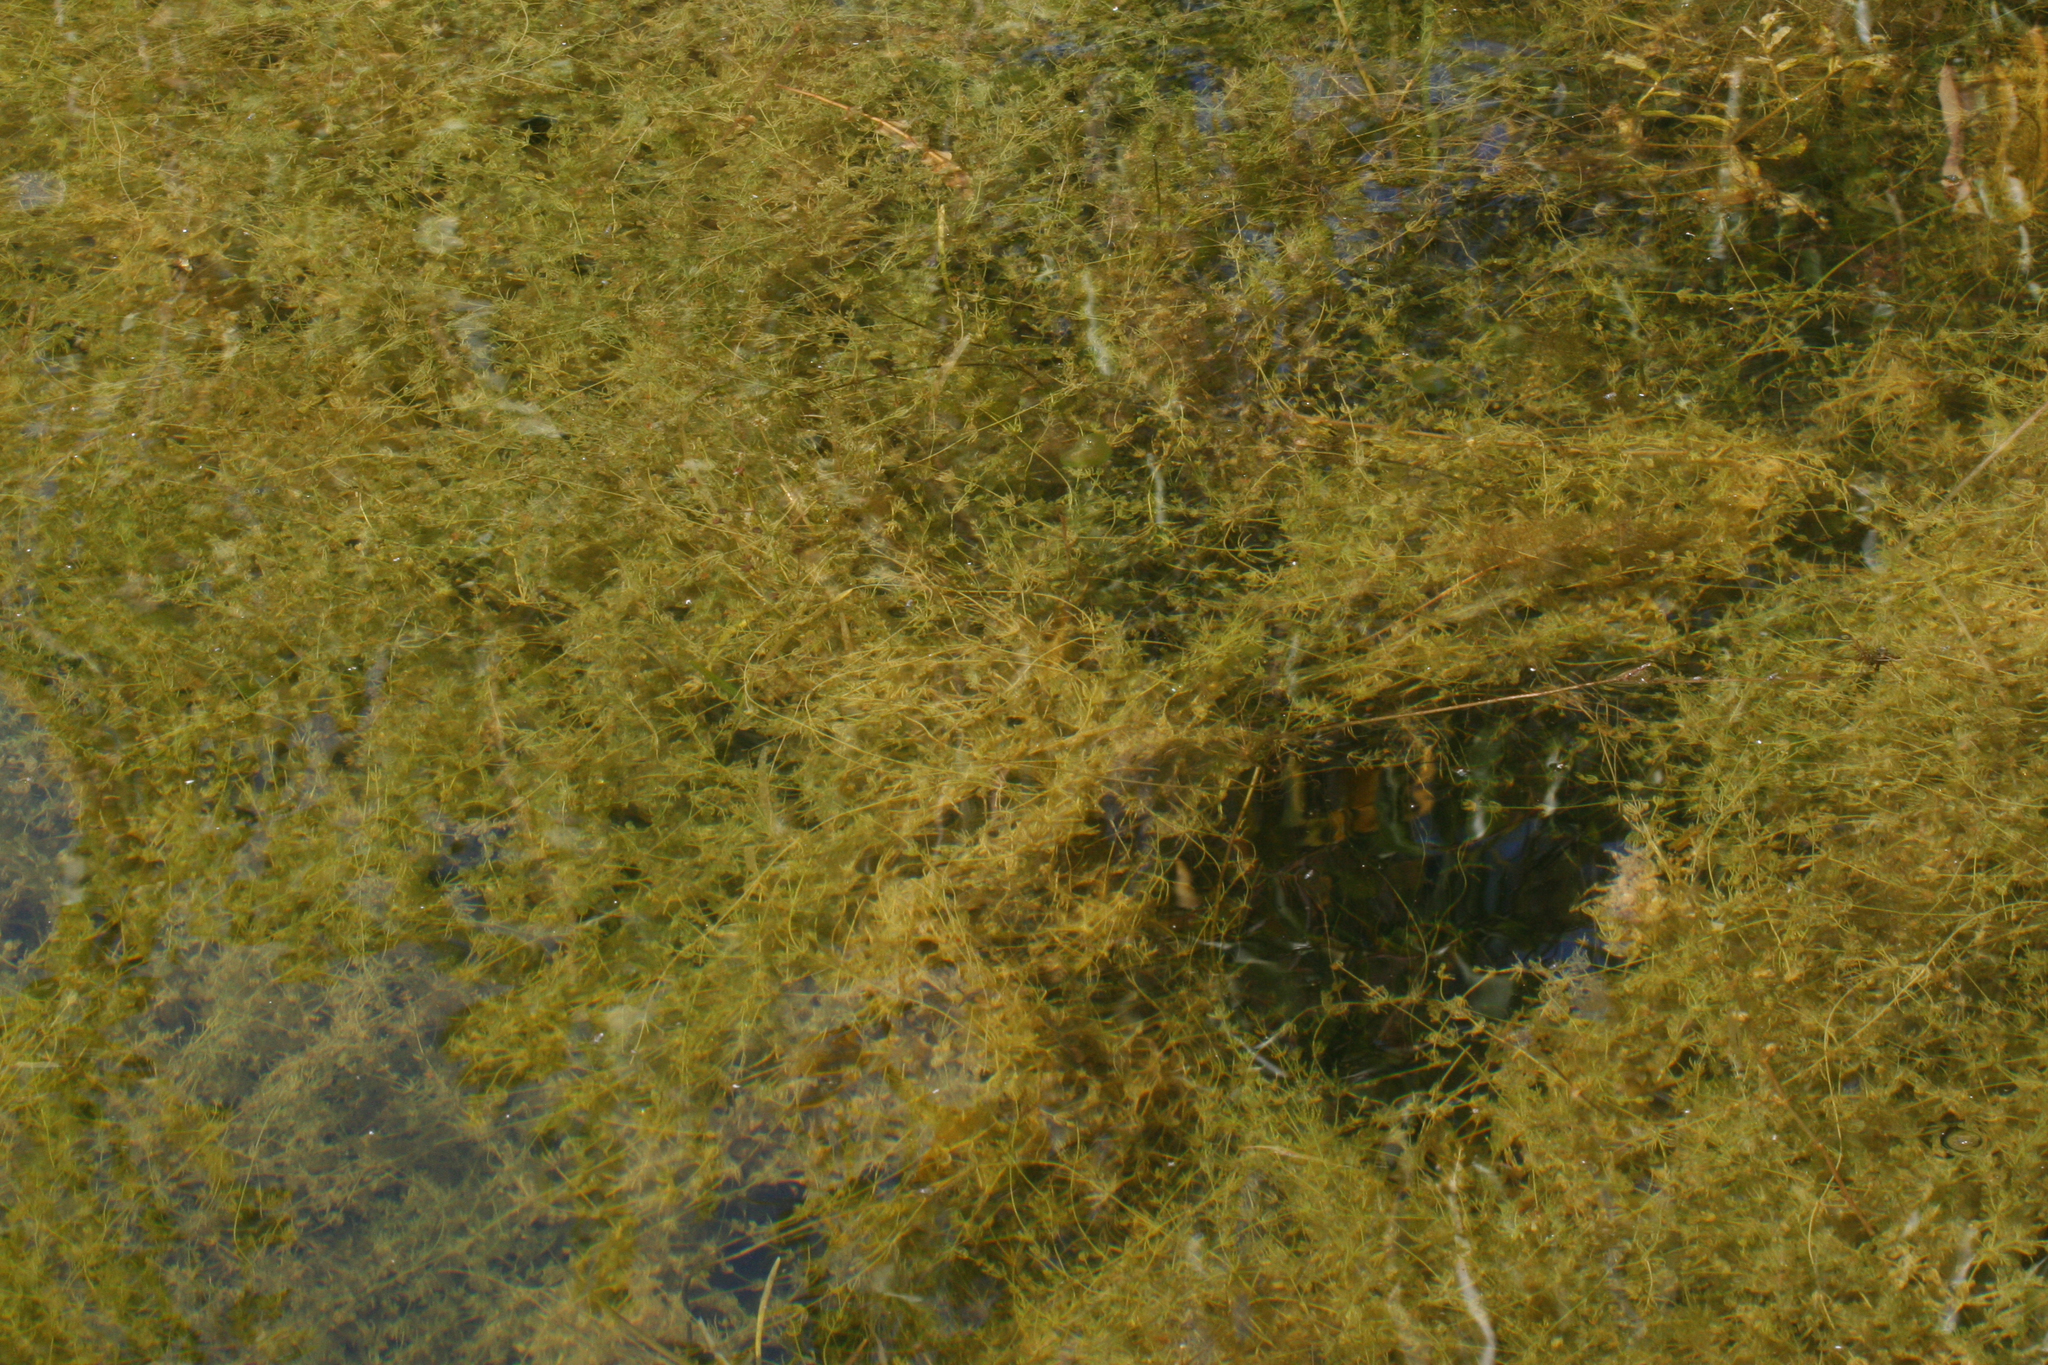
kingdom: Plantae
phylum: Charophyta
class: Charophyceae
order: Charales
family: Characeae
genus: Chara
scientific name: Chara contraria
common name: Opposite stonewort
